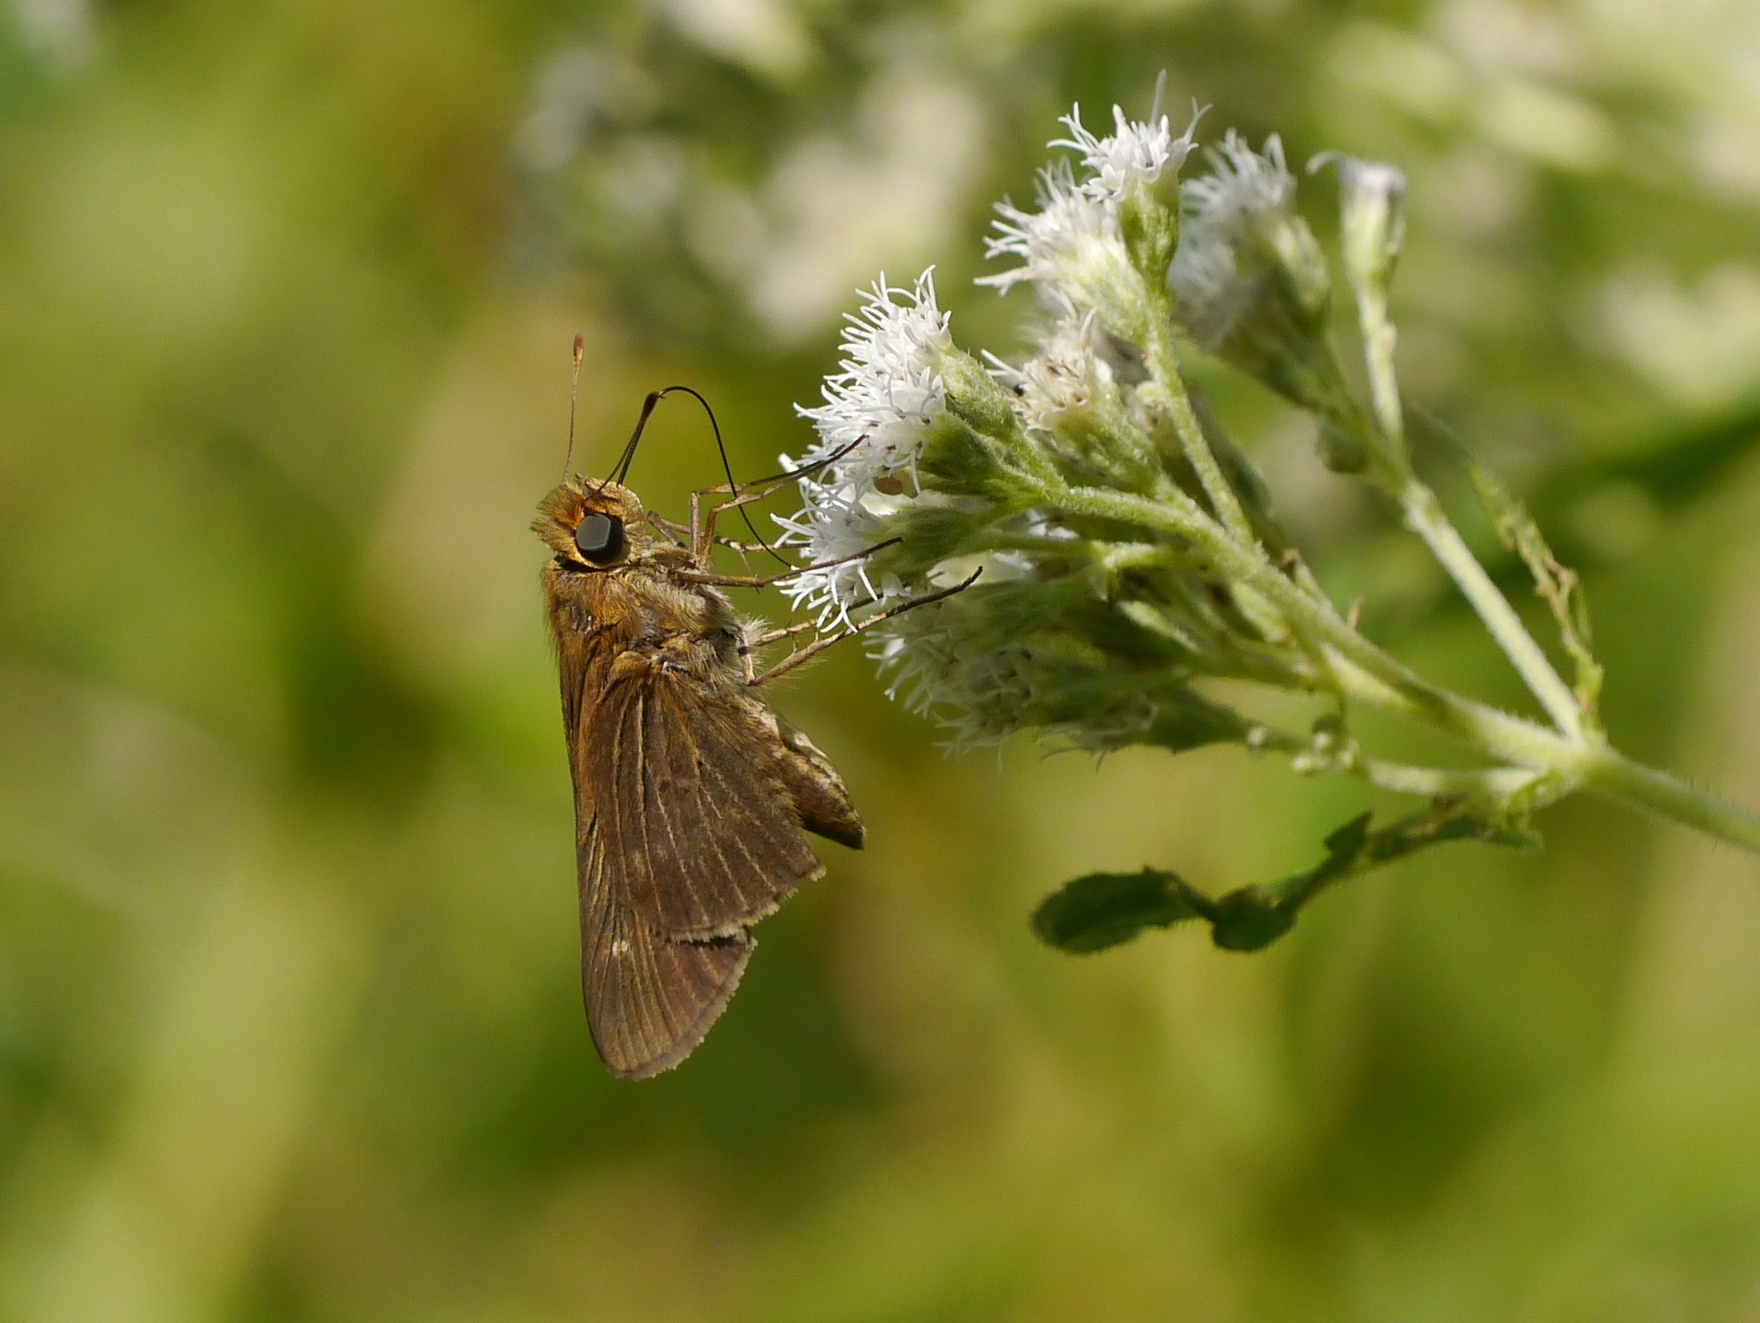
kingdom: Animalia
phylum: Arthropoda
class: Insecta
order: Lepidoptera
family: Hesperiidae
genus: Panoquina
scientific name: Panoquina ocola
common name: Ocola skipper
